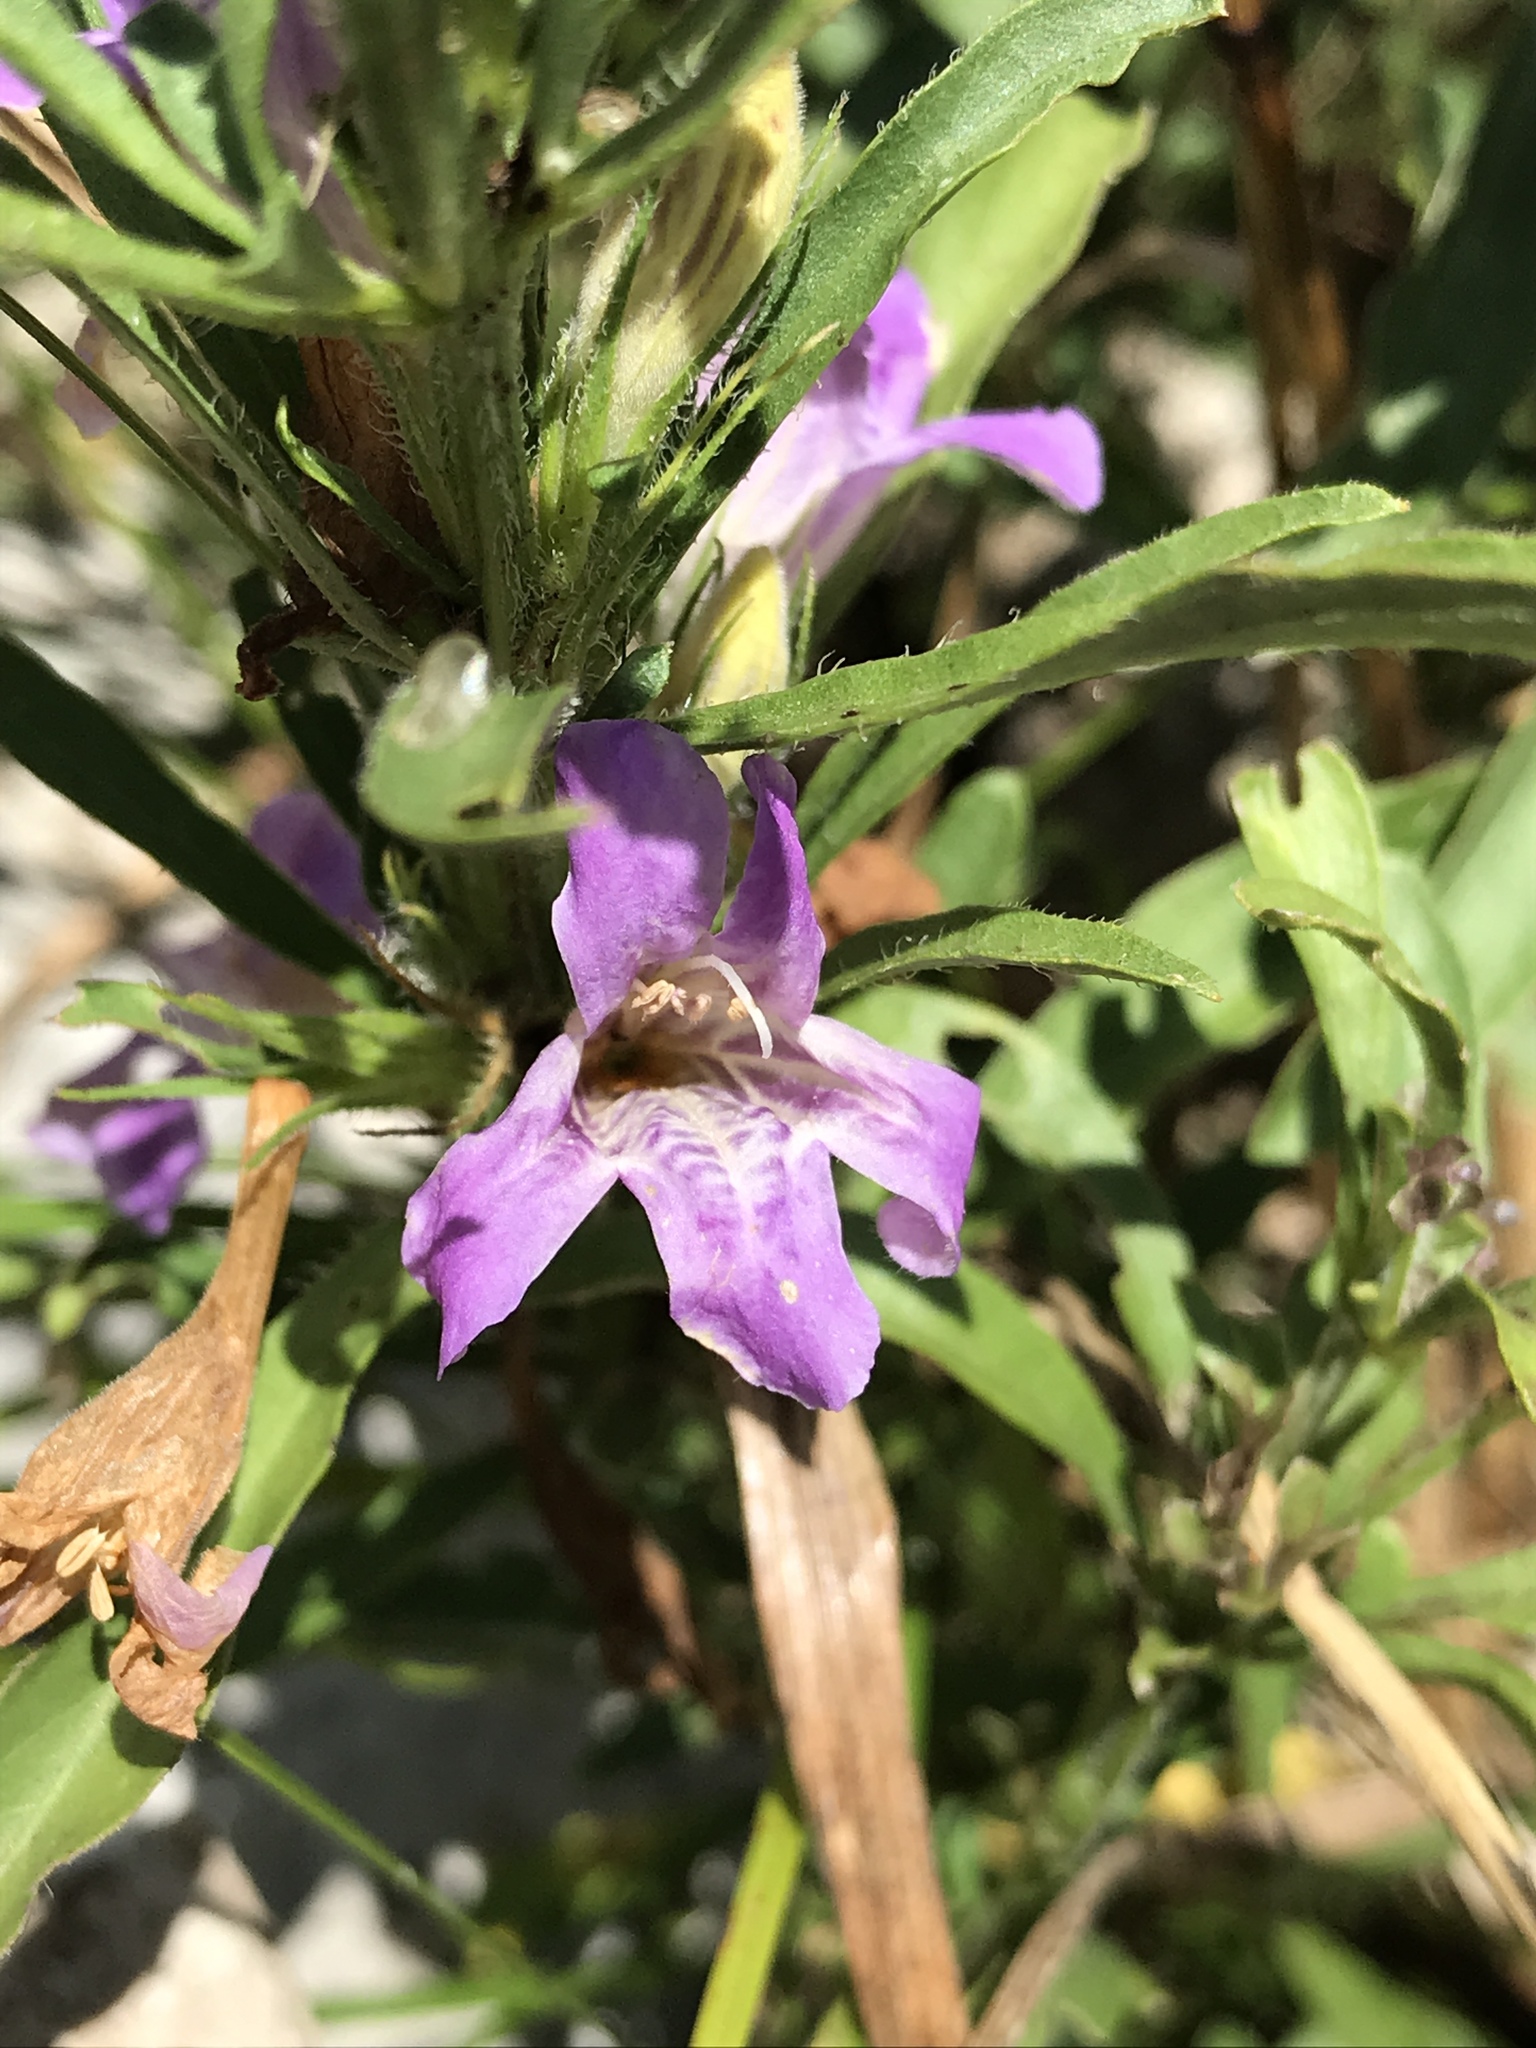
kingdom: Plantae
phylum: Tracheophyta
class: Magnoliopsida
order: Lamiales
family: Acanthaceae
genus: Dyschoriste
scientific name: Dyschoriste linearis
